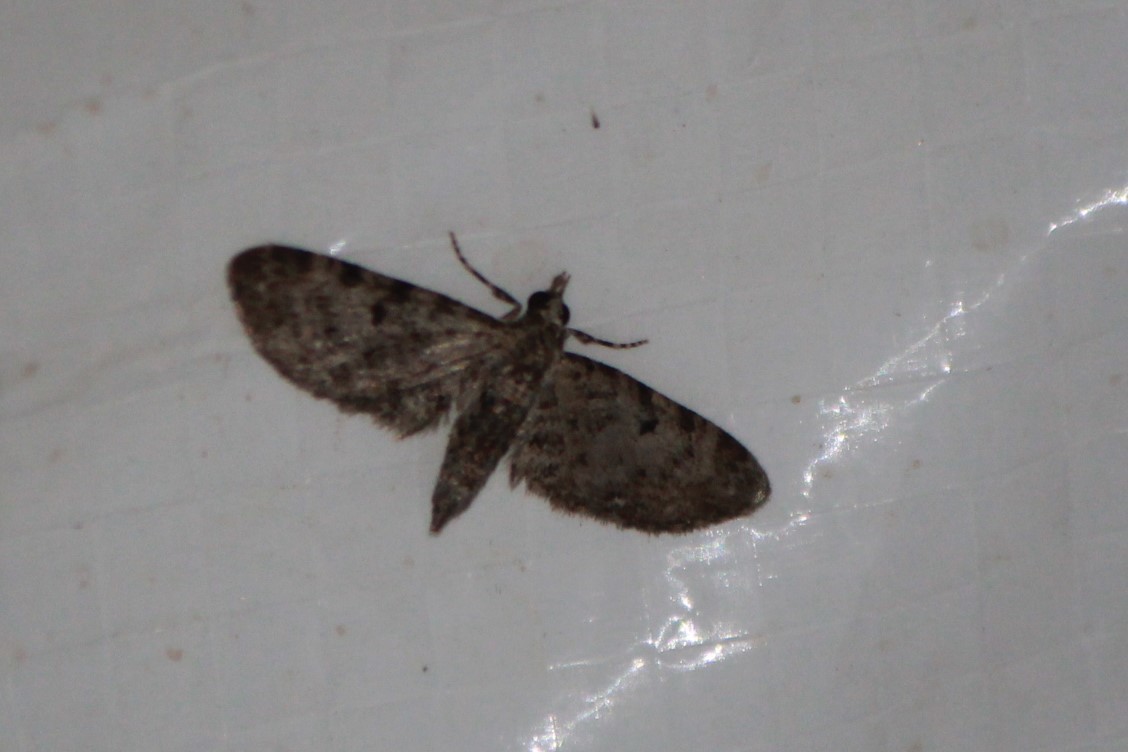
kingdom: Animalia
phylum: Arthropoda
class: Insecta
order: Lepidoptera
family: Geometridae
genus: Eupithecia
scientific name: Eupithecia miserulata
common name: Common eupithecia
